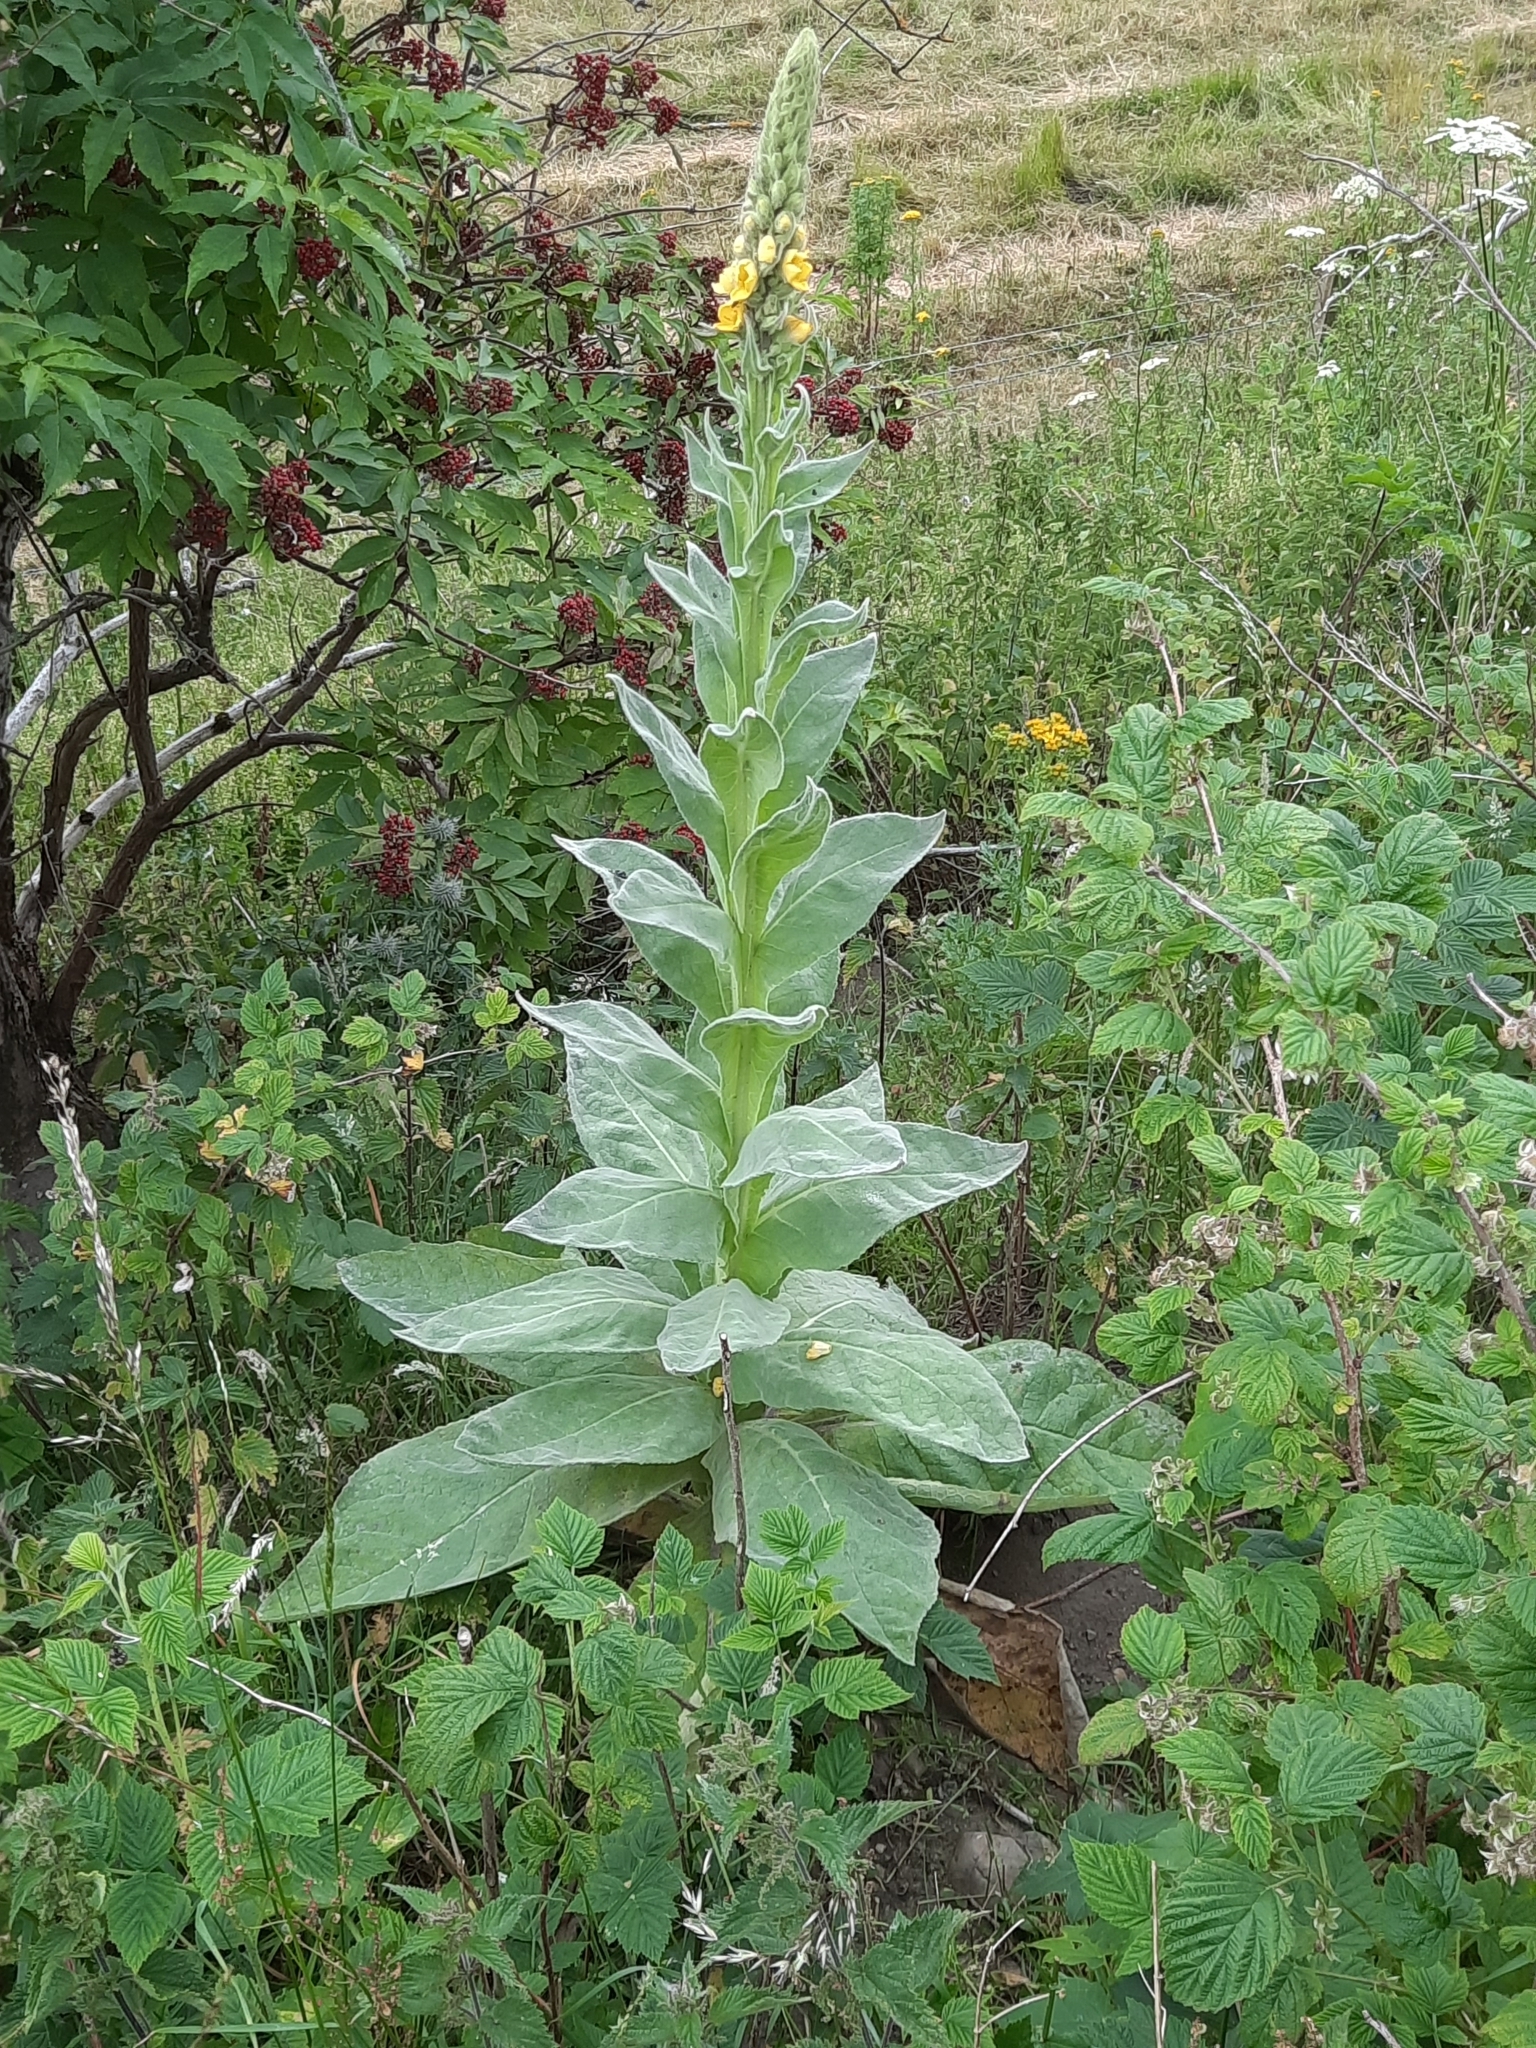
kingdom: Plantae
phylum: Tracheophyta
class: Magnoliopsida
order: Lamiales
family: Scrophulariaceae
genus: Verbascum
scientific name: Verbascum thapsus
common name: Common mullein
